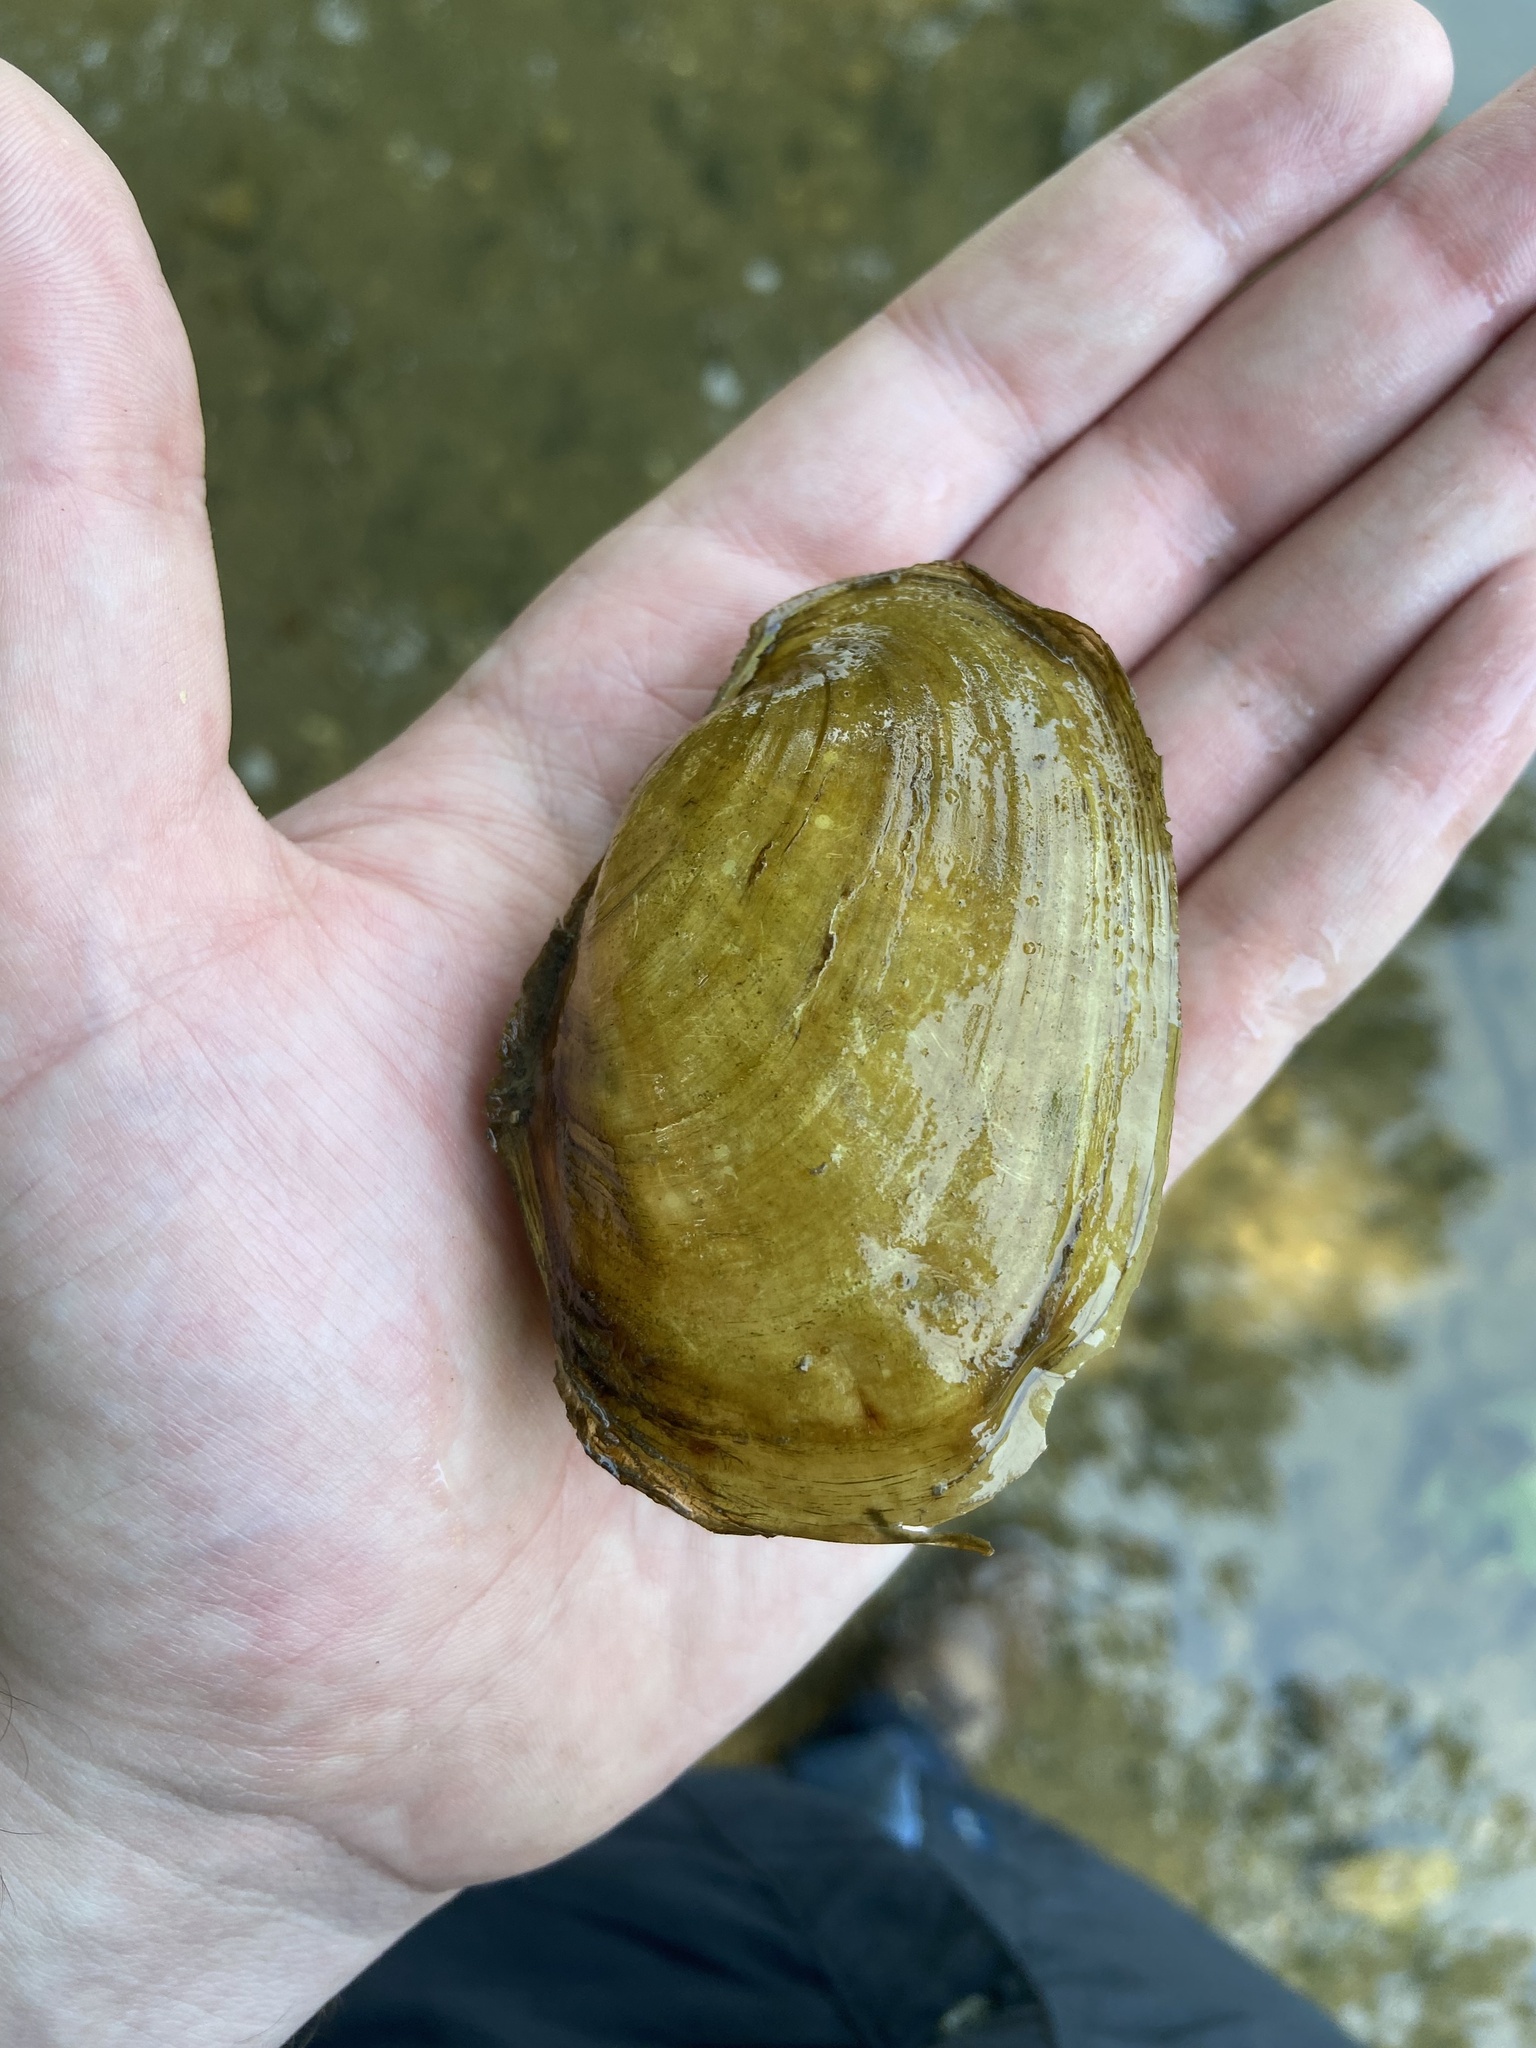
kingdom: Animalia
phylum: Mollusca
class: Bivalvia
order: Unionida
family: Unionidae
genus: Potamilus
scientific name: Potamilus fragilis
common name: Fragile papershell
